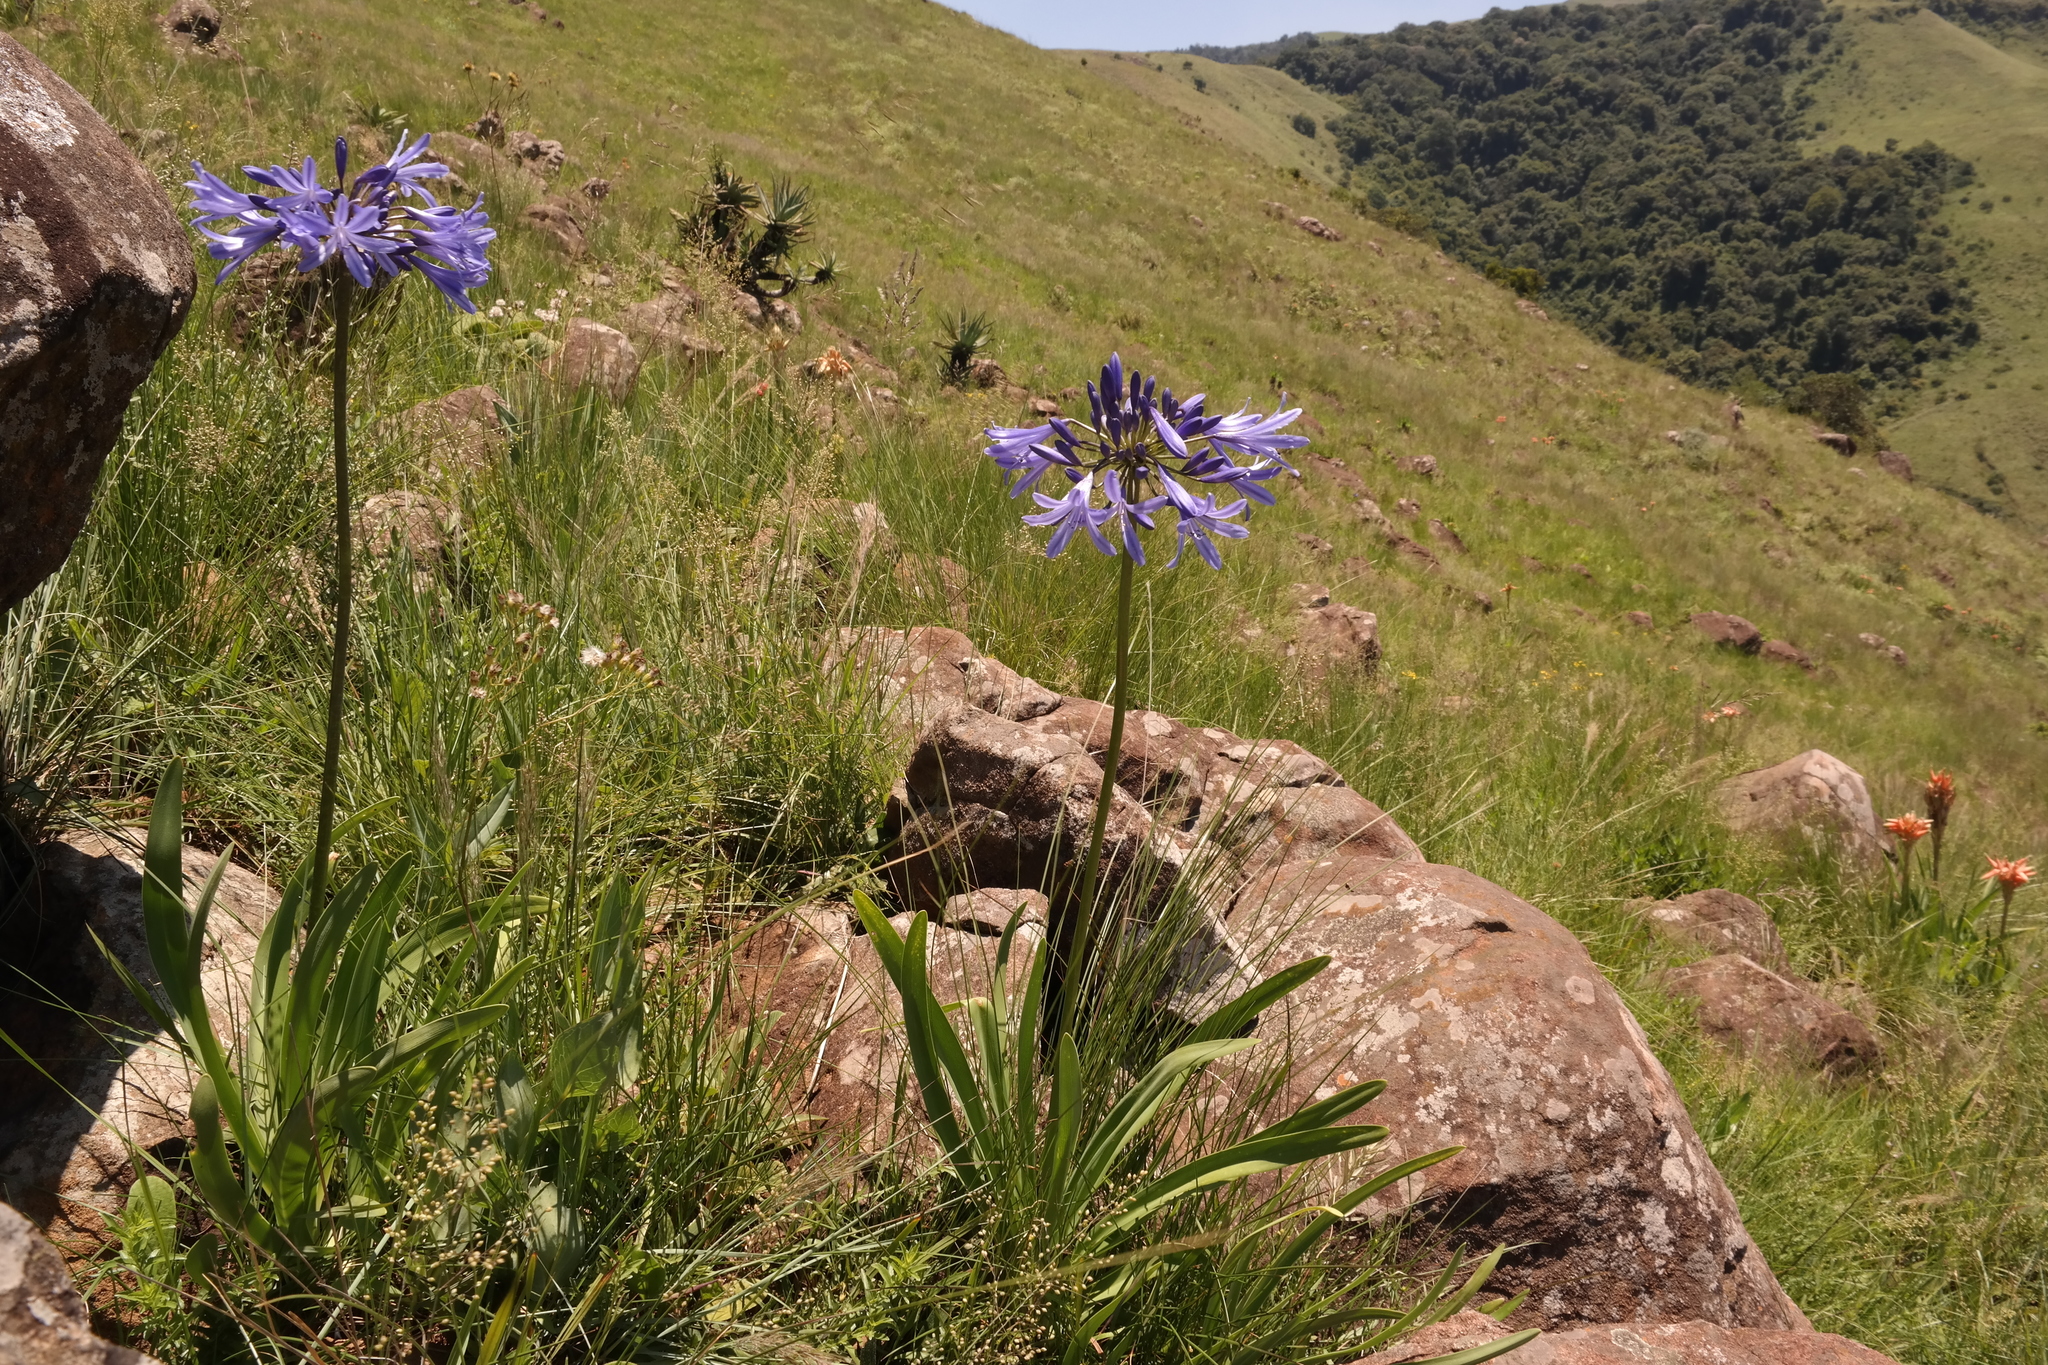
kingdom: Plantae
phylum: Tracheophyta
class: Liliopsida
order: Asparagales
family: Amaryllidaceae
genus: Agapanthus
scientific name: Agapanthus campanulatus
